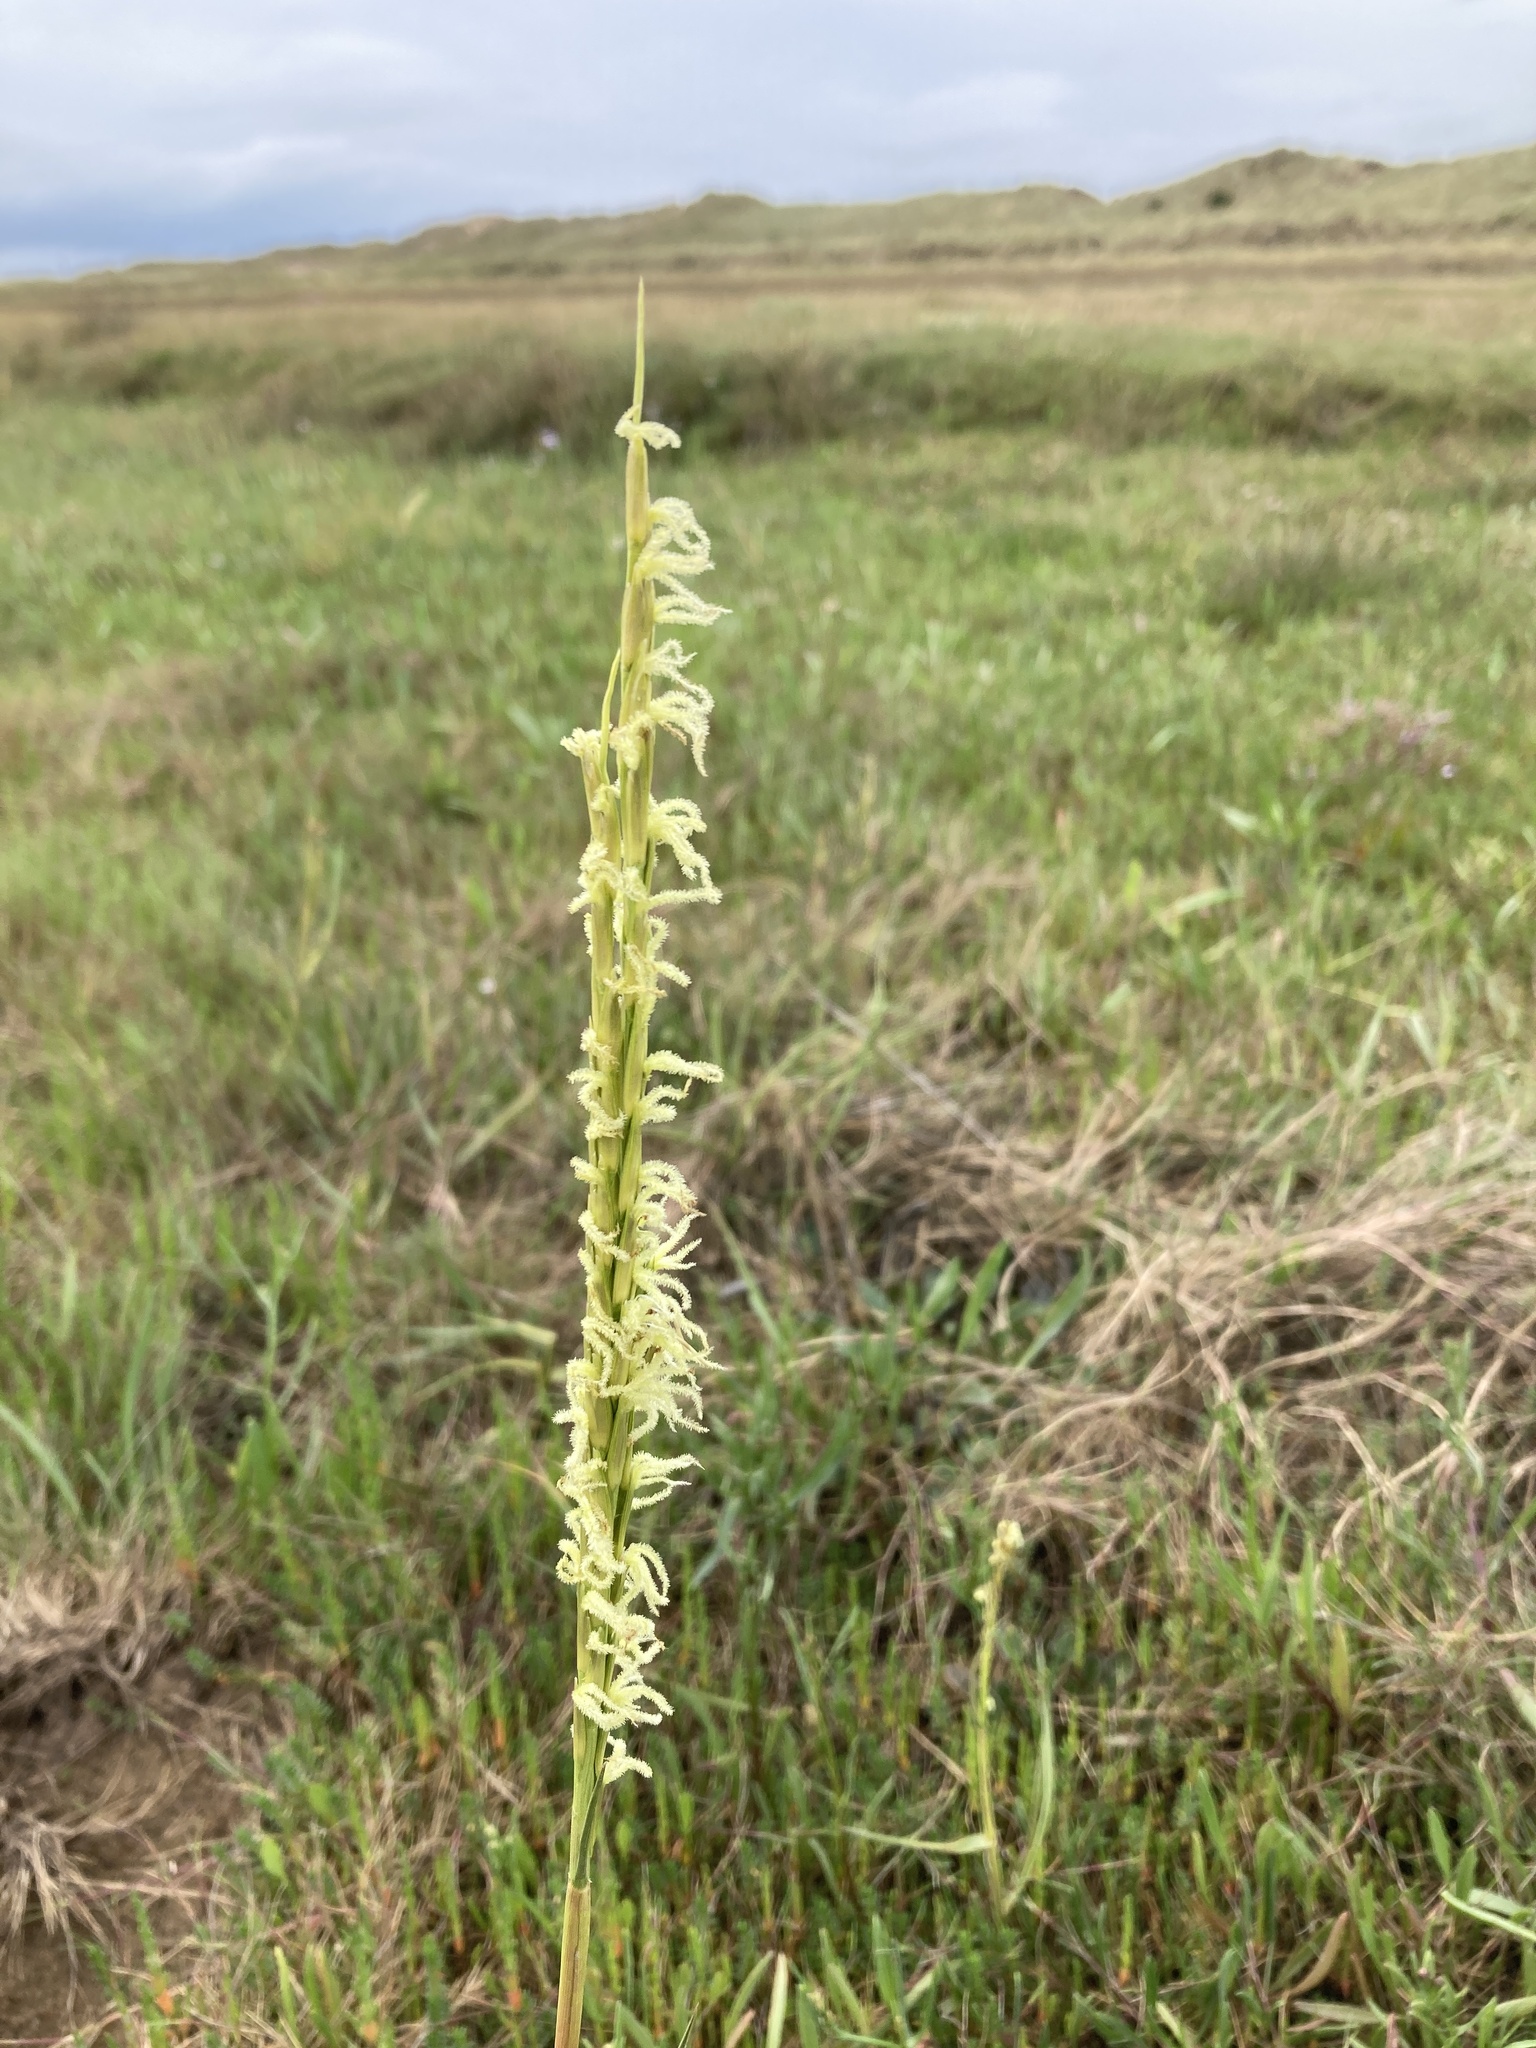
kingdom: Plantae
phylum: Tracheophyta
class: Liliopsida
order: Poales
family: Poaceae
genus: Sporobolus
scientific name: Sporobolus anglicus
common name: English cordgrass
